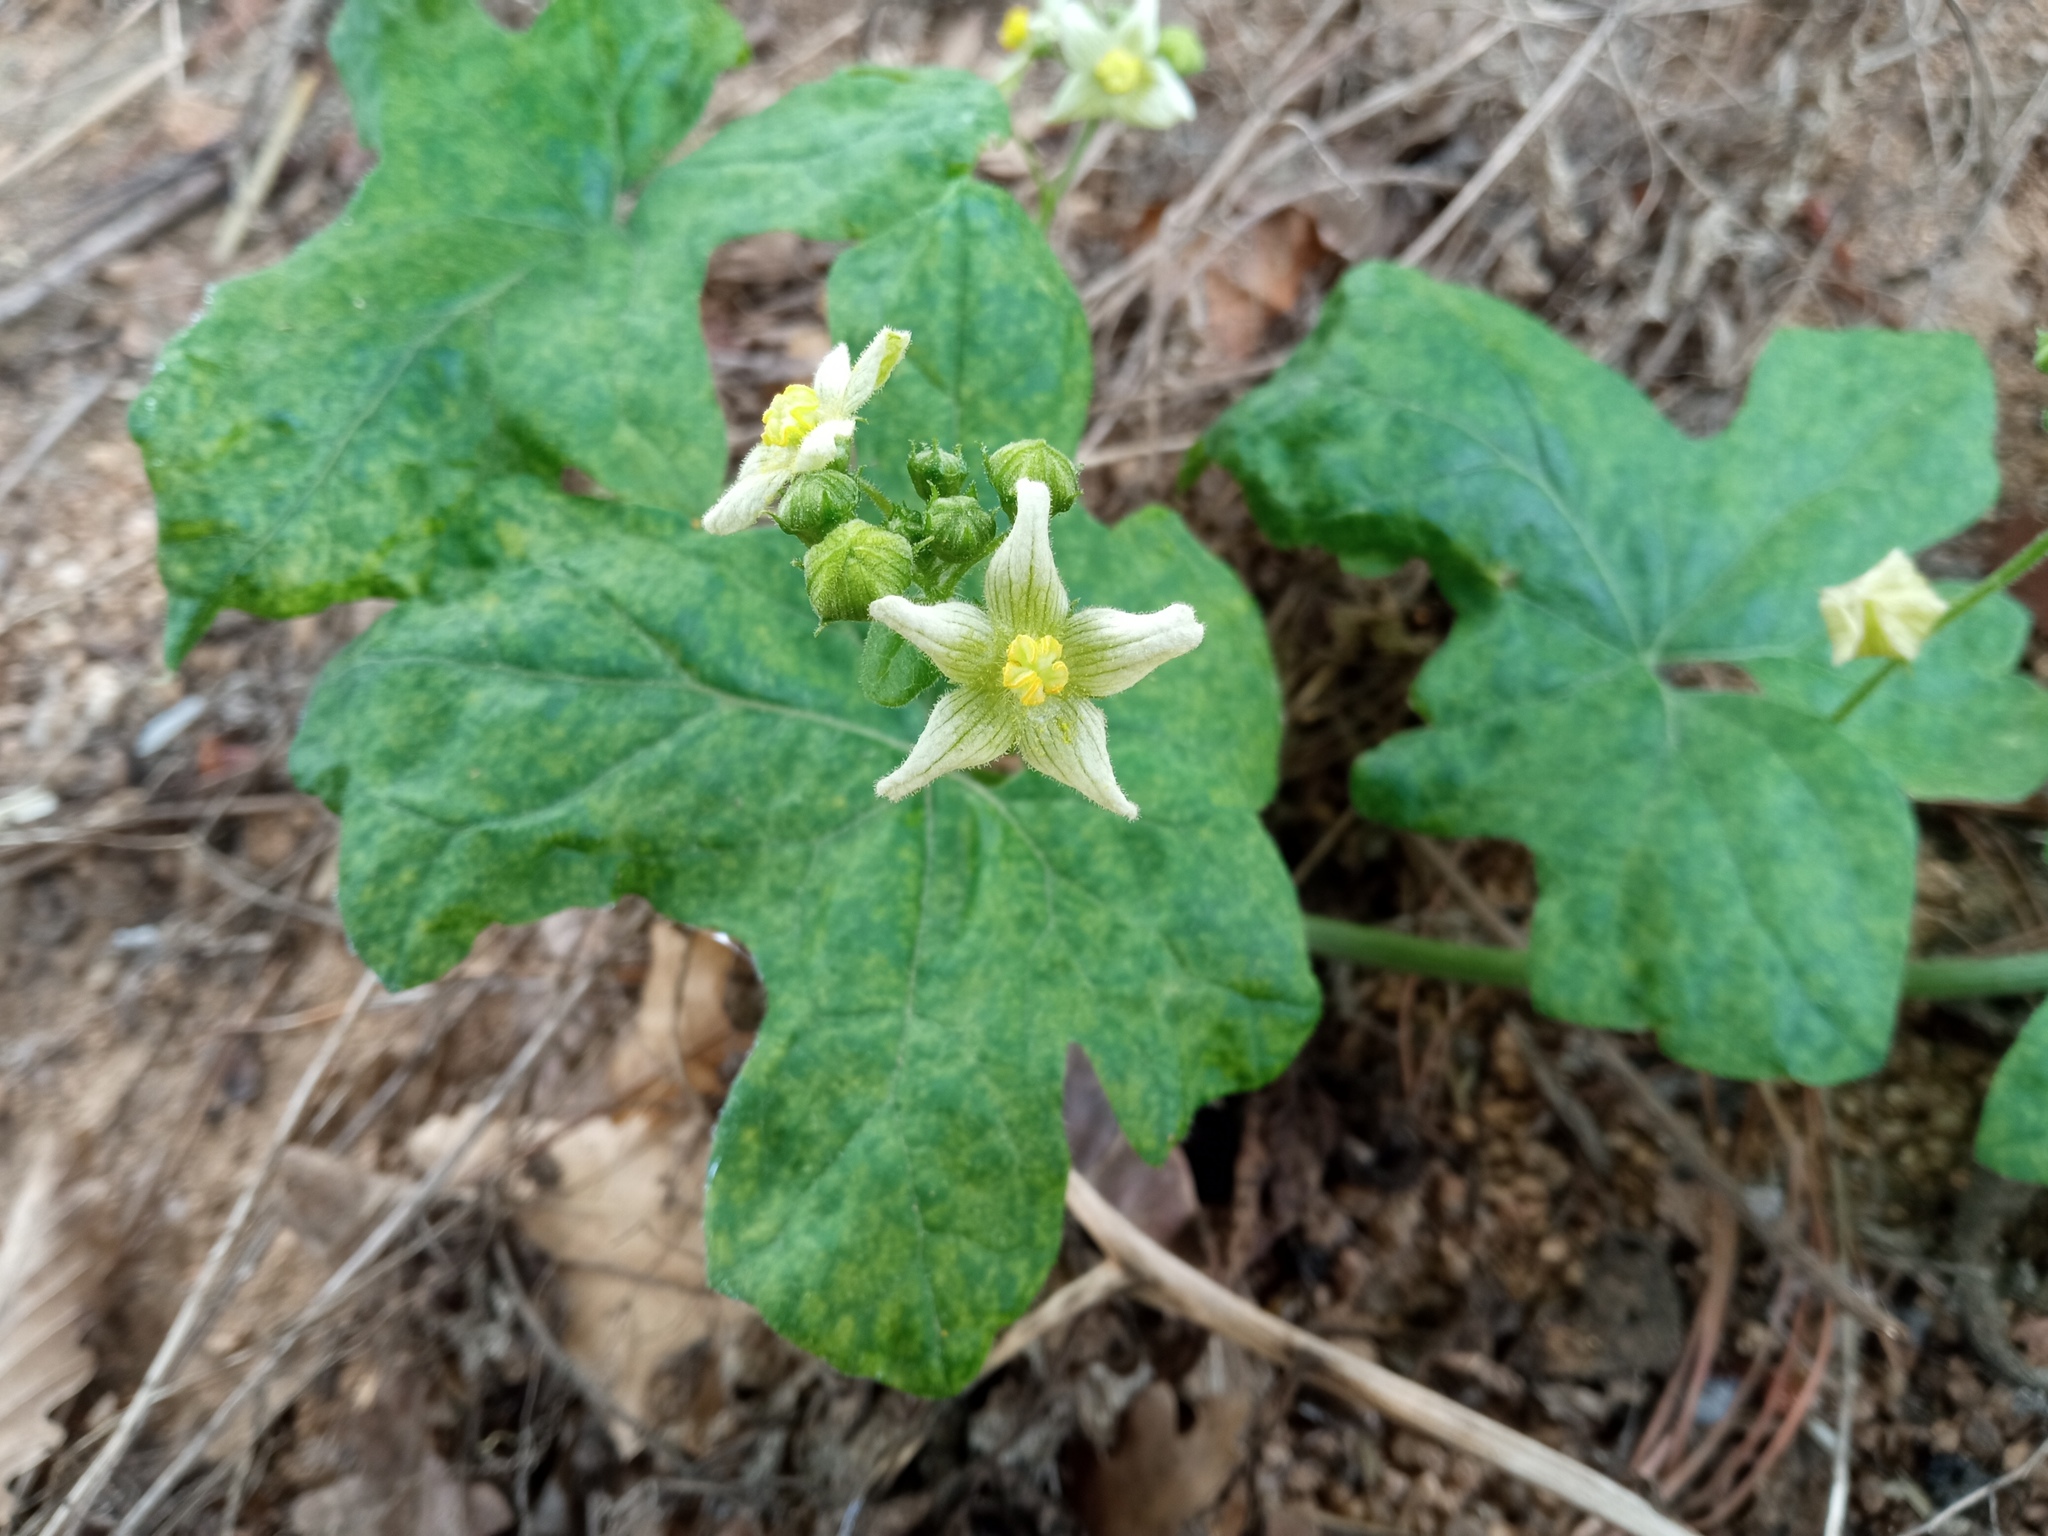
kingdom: Plantae
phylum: Tracheophyta
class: Magnoliopsida
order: Cucurbitales
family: Cucurbitaceae
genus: Bryonia
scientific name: Bryonia dioica
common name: White bryony
